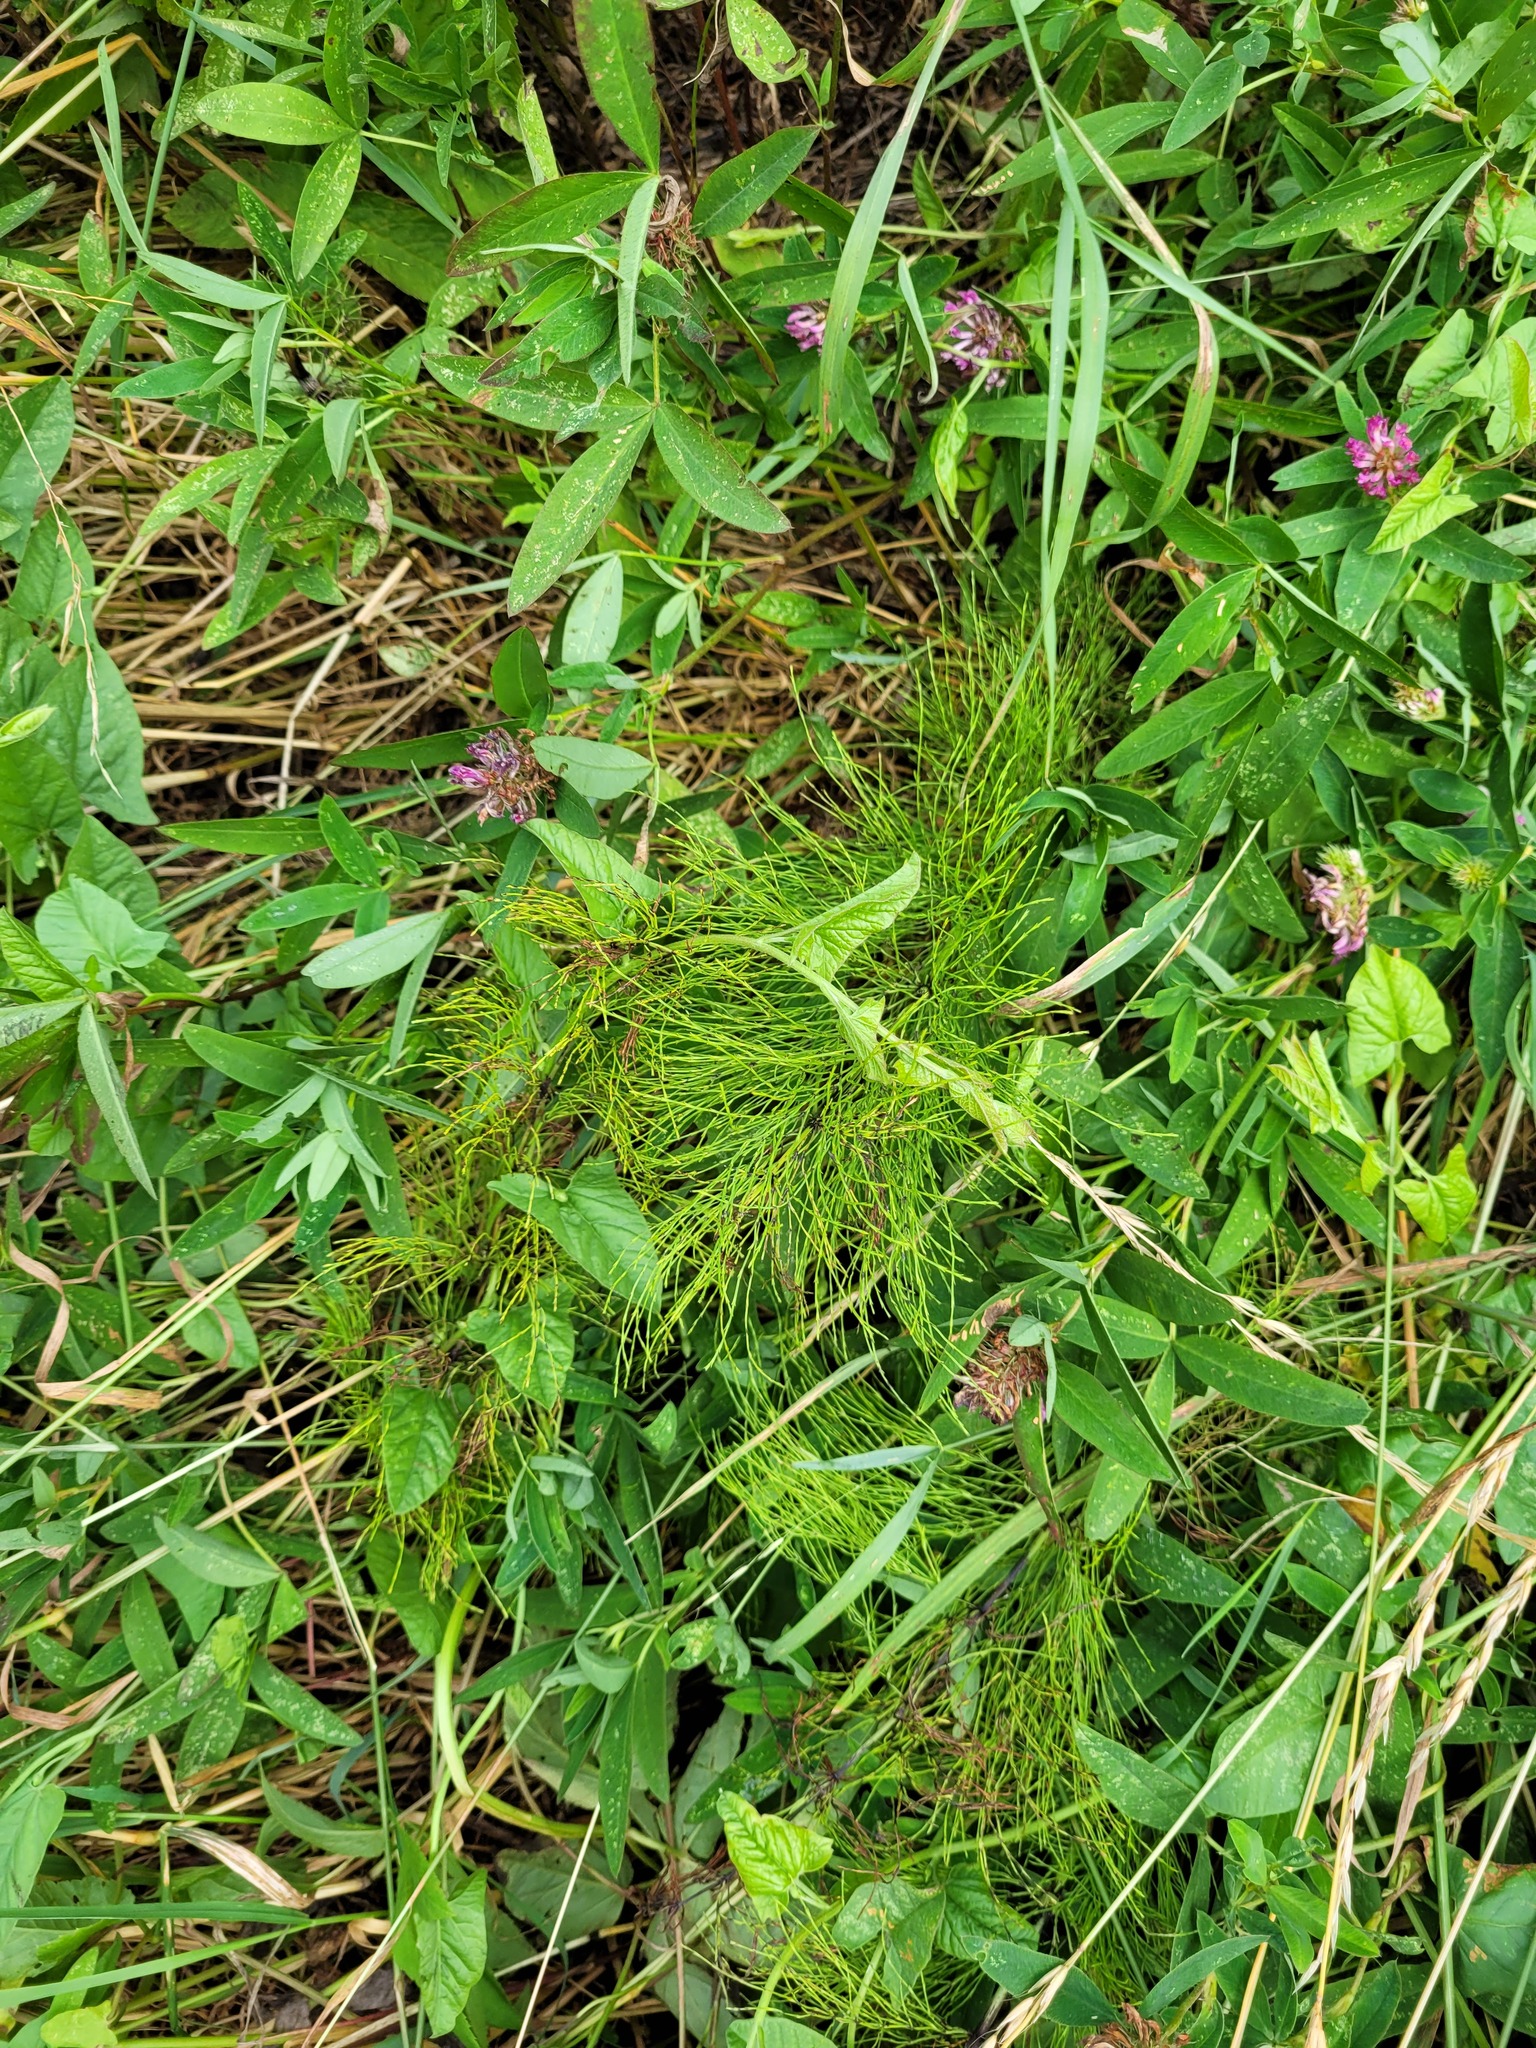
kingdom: Plantae
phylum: Tracheophyta
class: Polypodiopsida
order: Equisetales
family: Equisetaceae
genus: Equisetum
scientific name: Equisetum sylvaticum
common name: Wood horsetail
